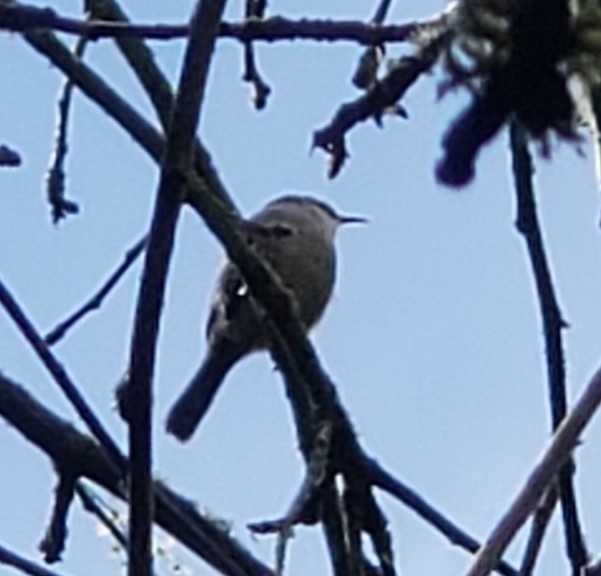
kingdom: Animalia
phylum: Chordata
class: Aves
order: Passeriformes
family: Troglodytidae
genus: Thryomanes
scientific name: Thryomanes bewickii
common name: Bewick's wren
